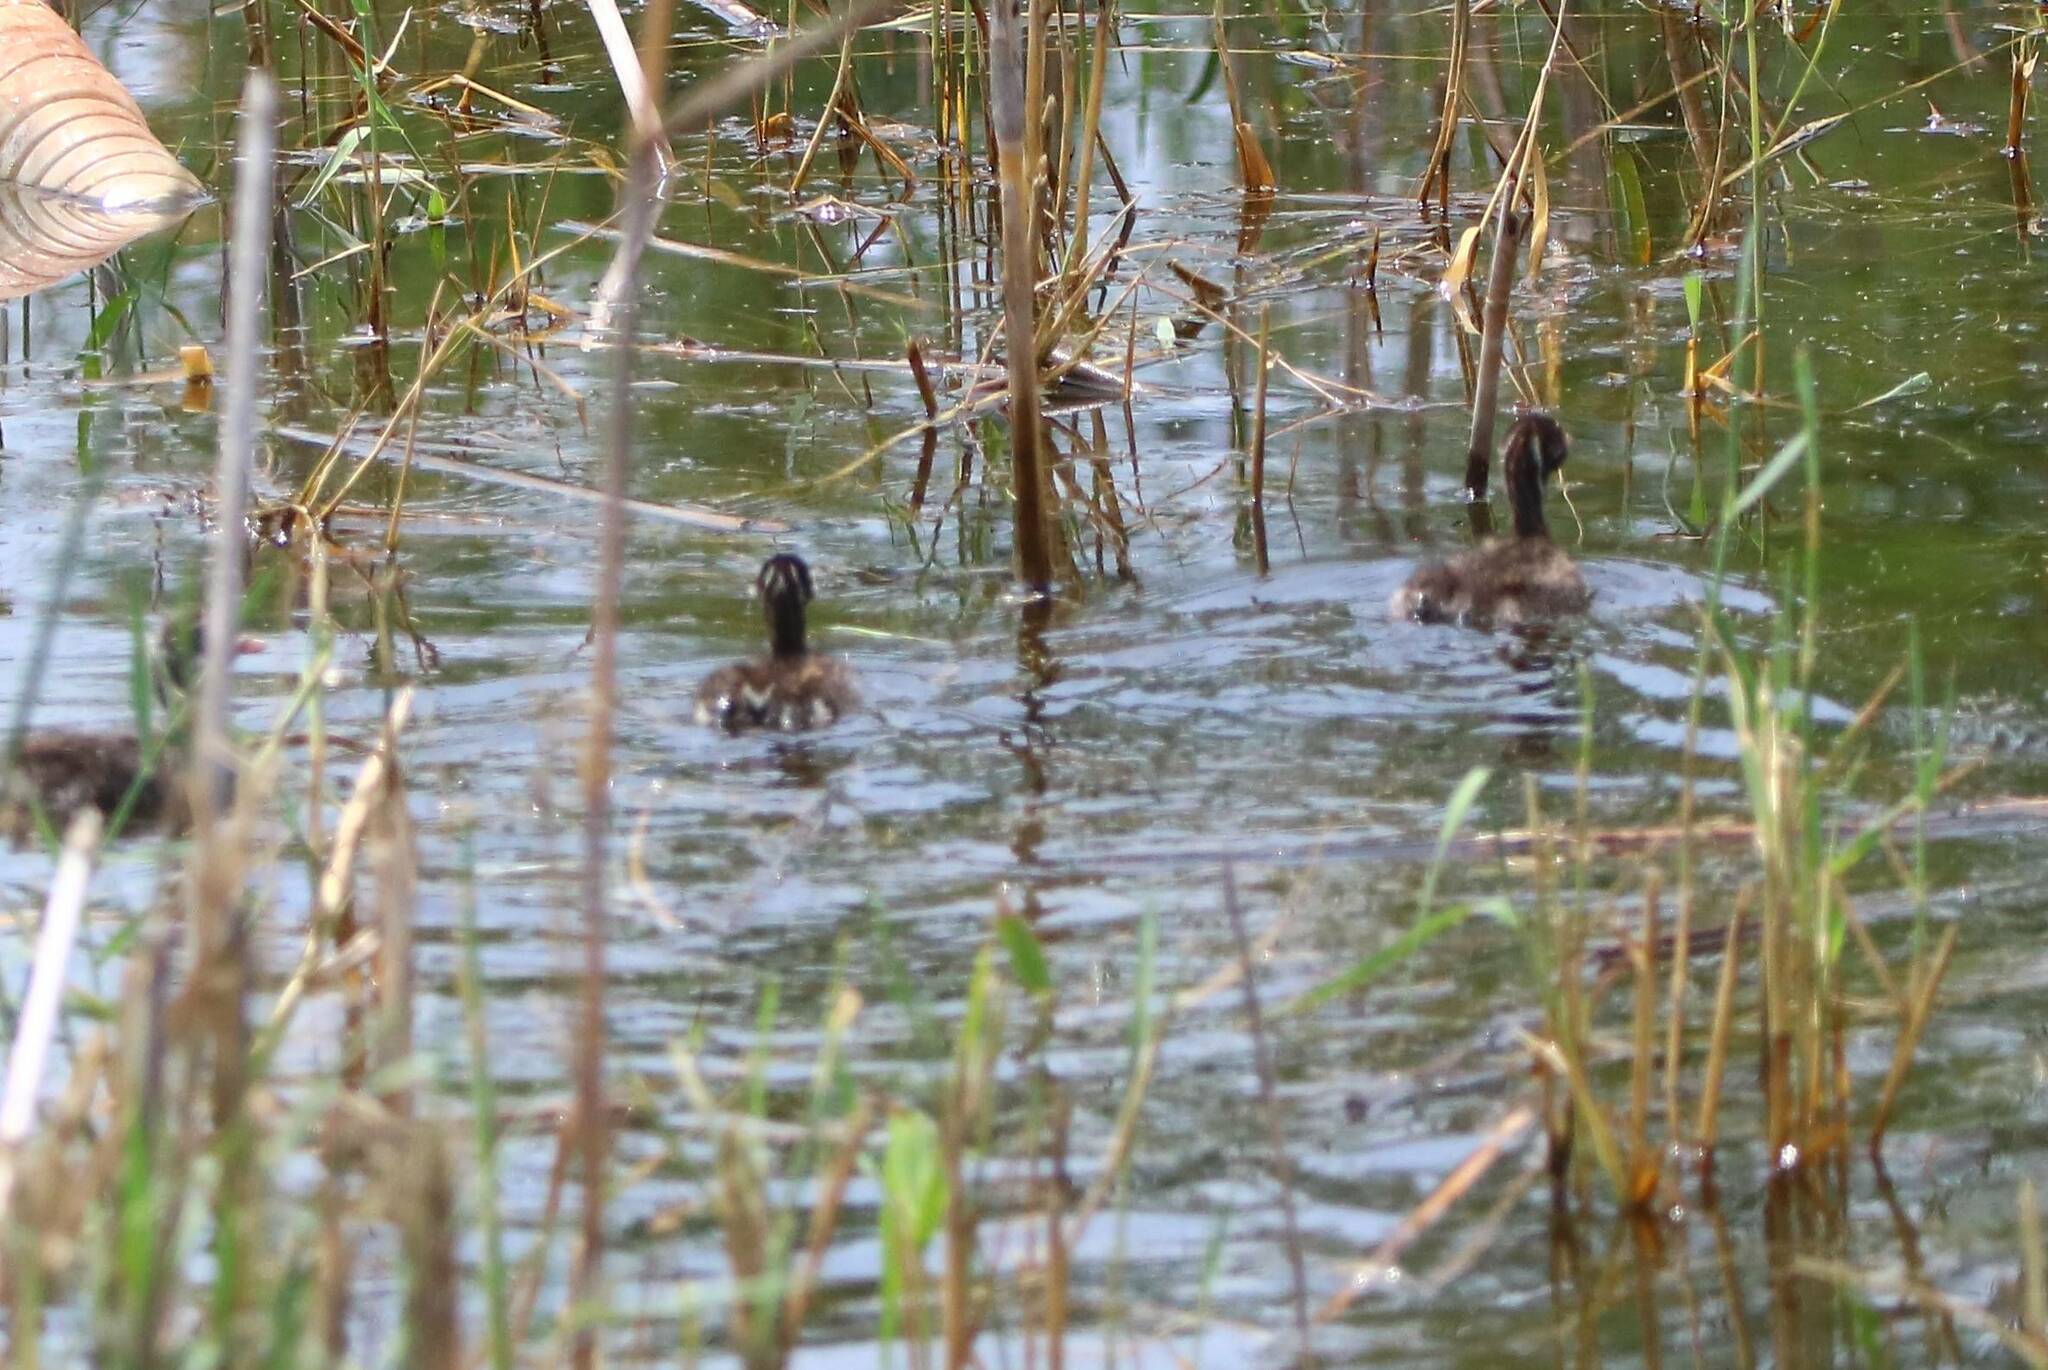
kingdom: Animalia
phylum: Chordata
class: Aves
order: Podicipediformes
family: Podicipedidae
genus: Tachybaptus
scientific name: Tachybaptus ruficollis
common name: Little grebe
